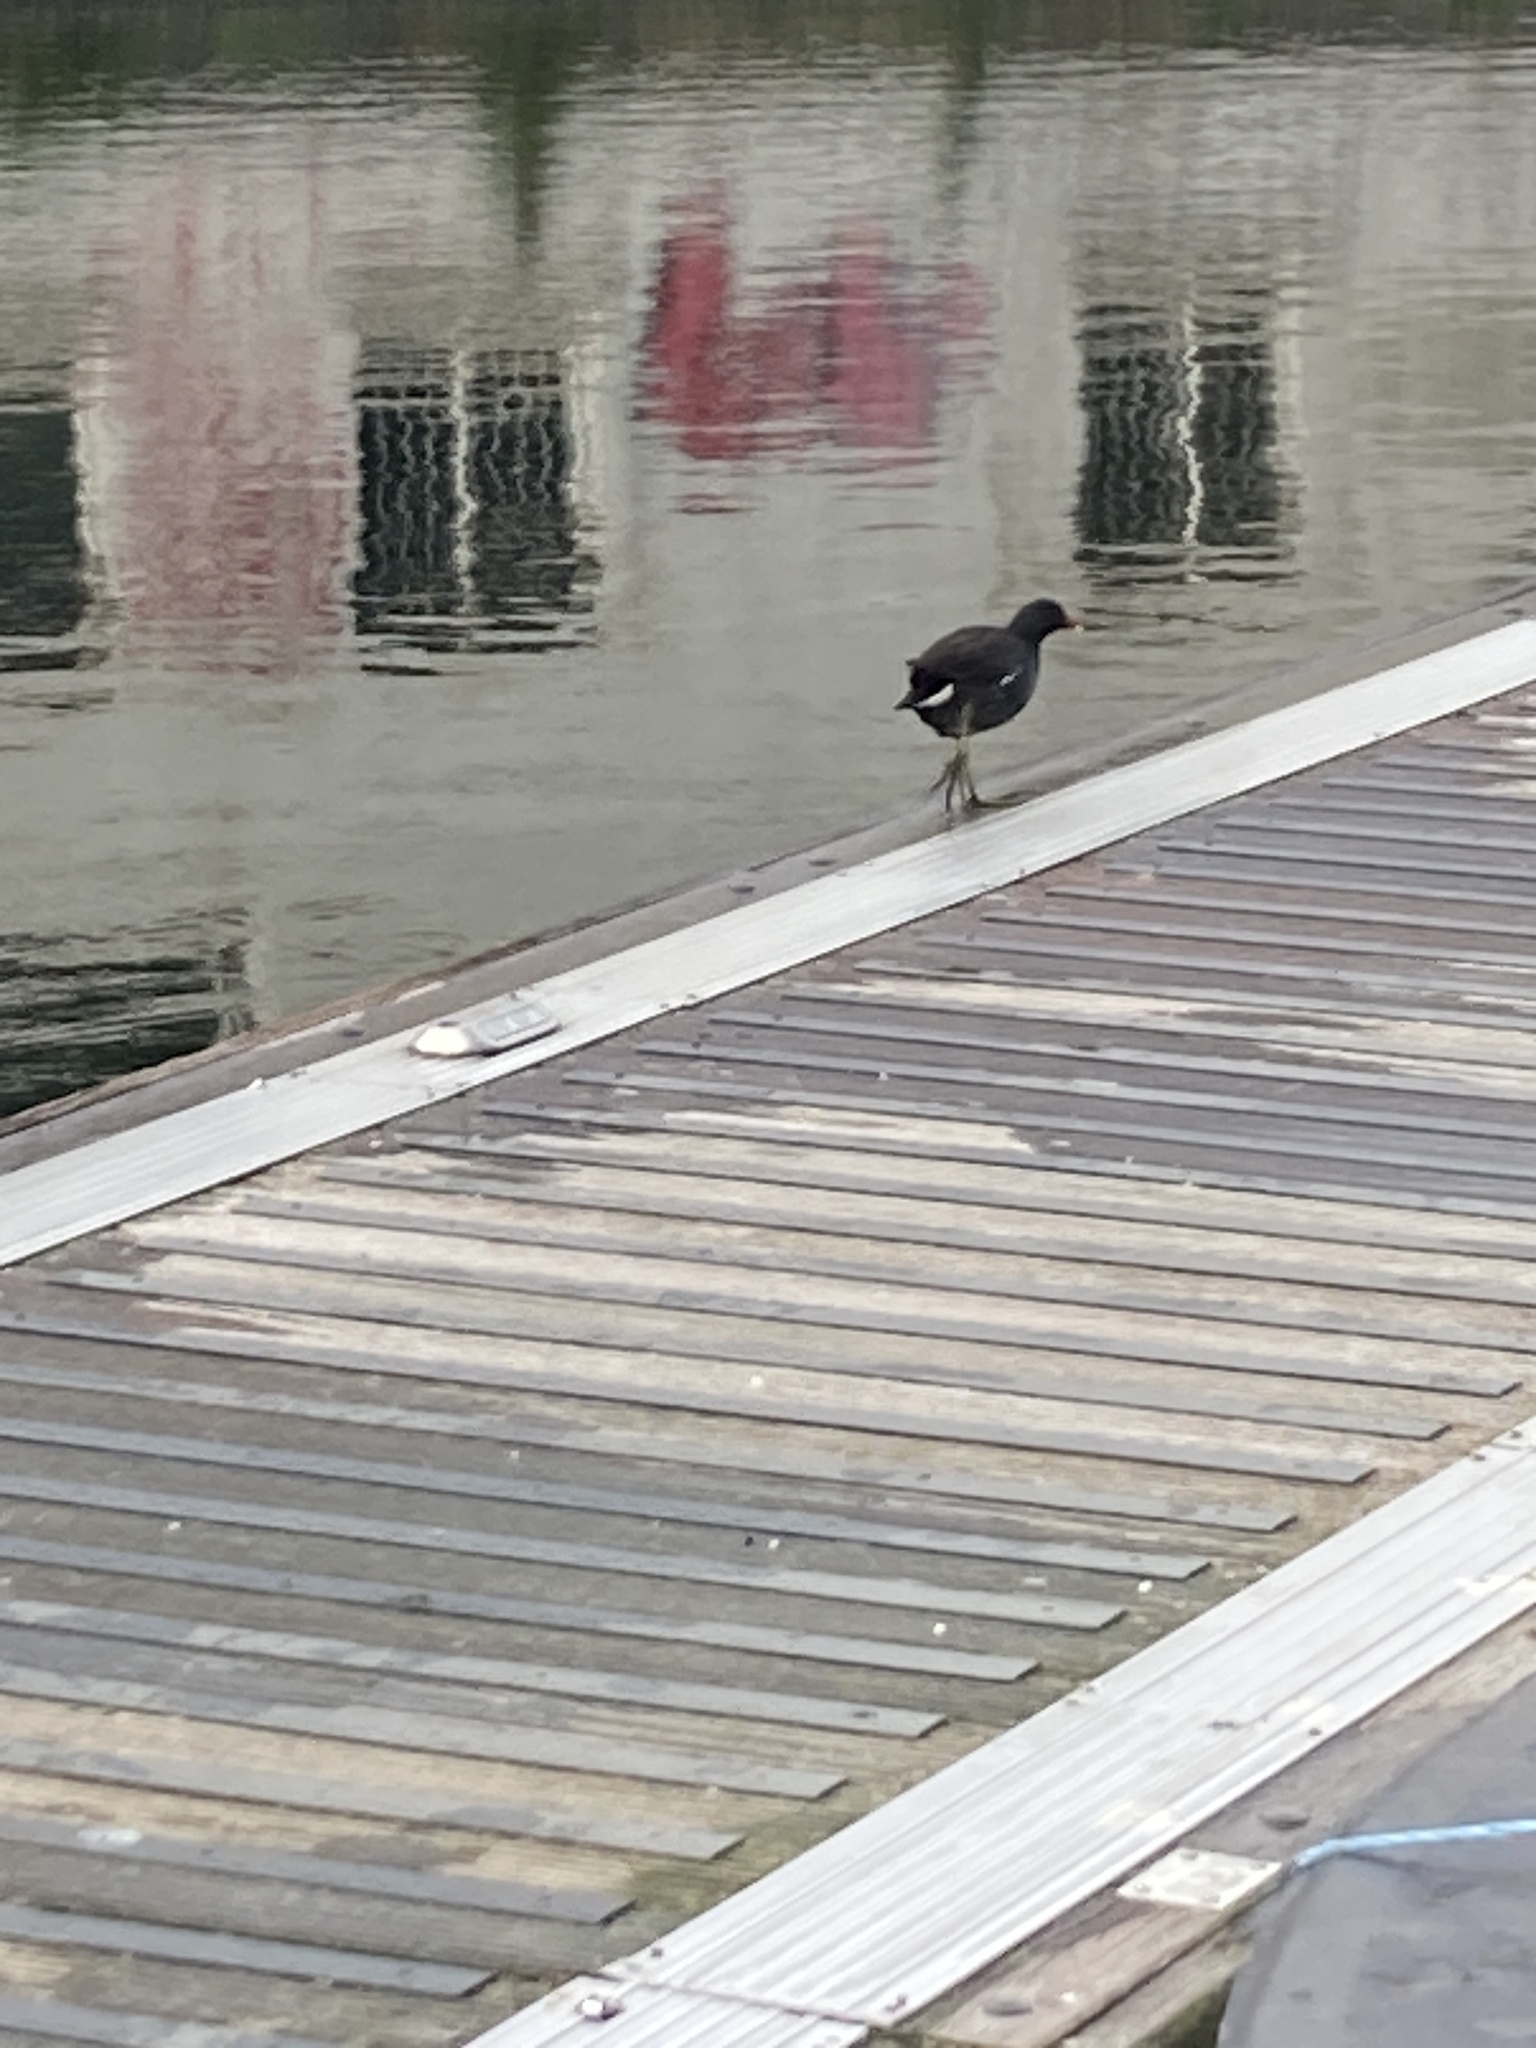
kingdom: Animalia
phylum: Chordata
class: Aves
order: Gruiformes
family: Rallidae
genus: Gallinula
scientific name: Gallinula chloropus
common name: Common moorhen
